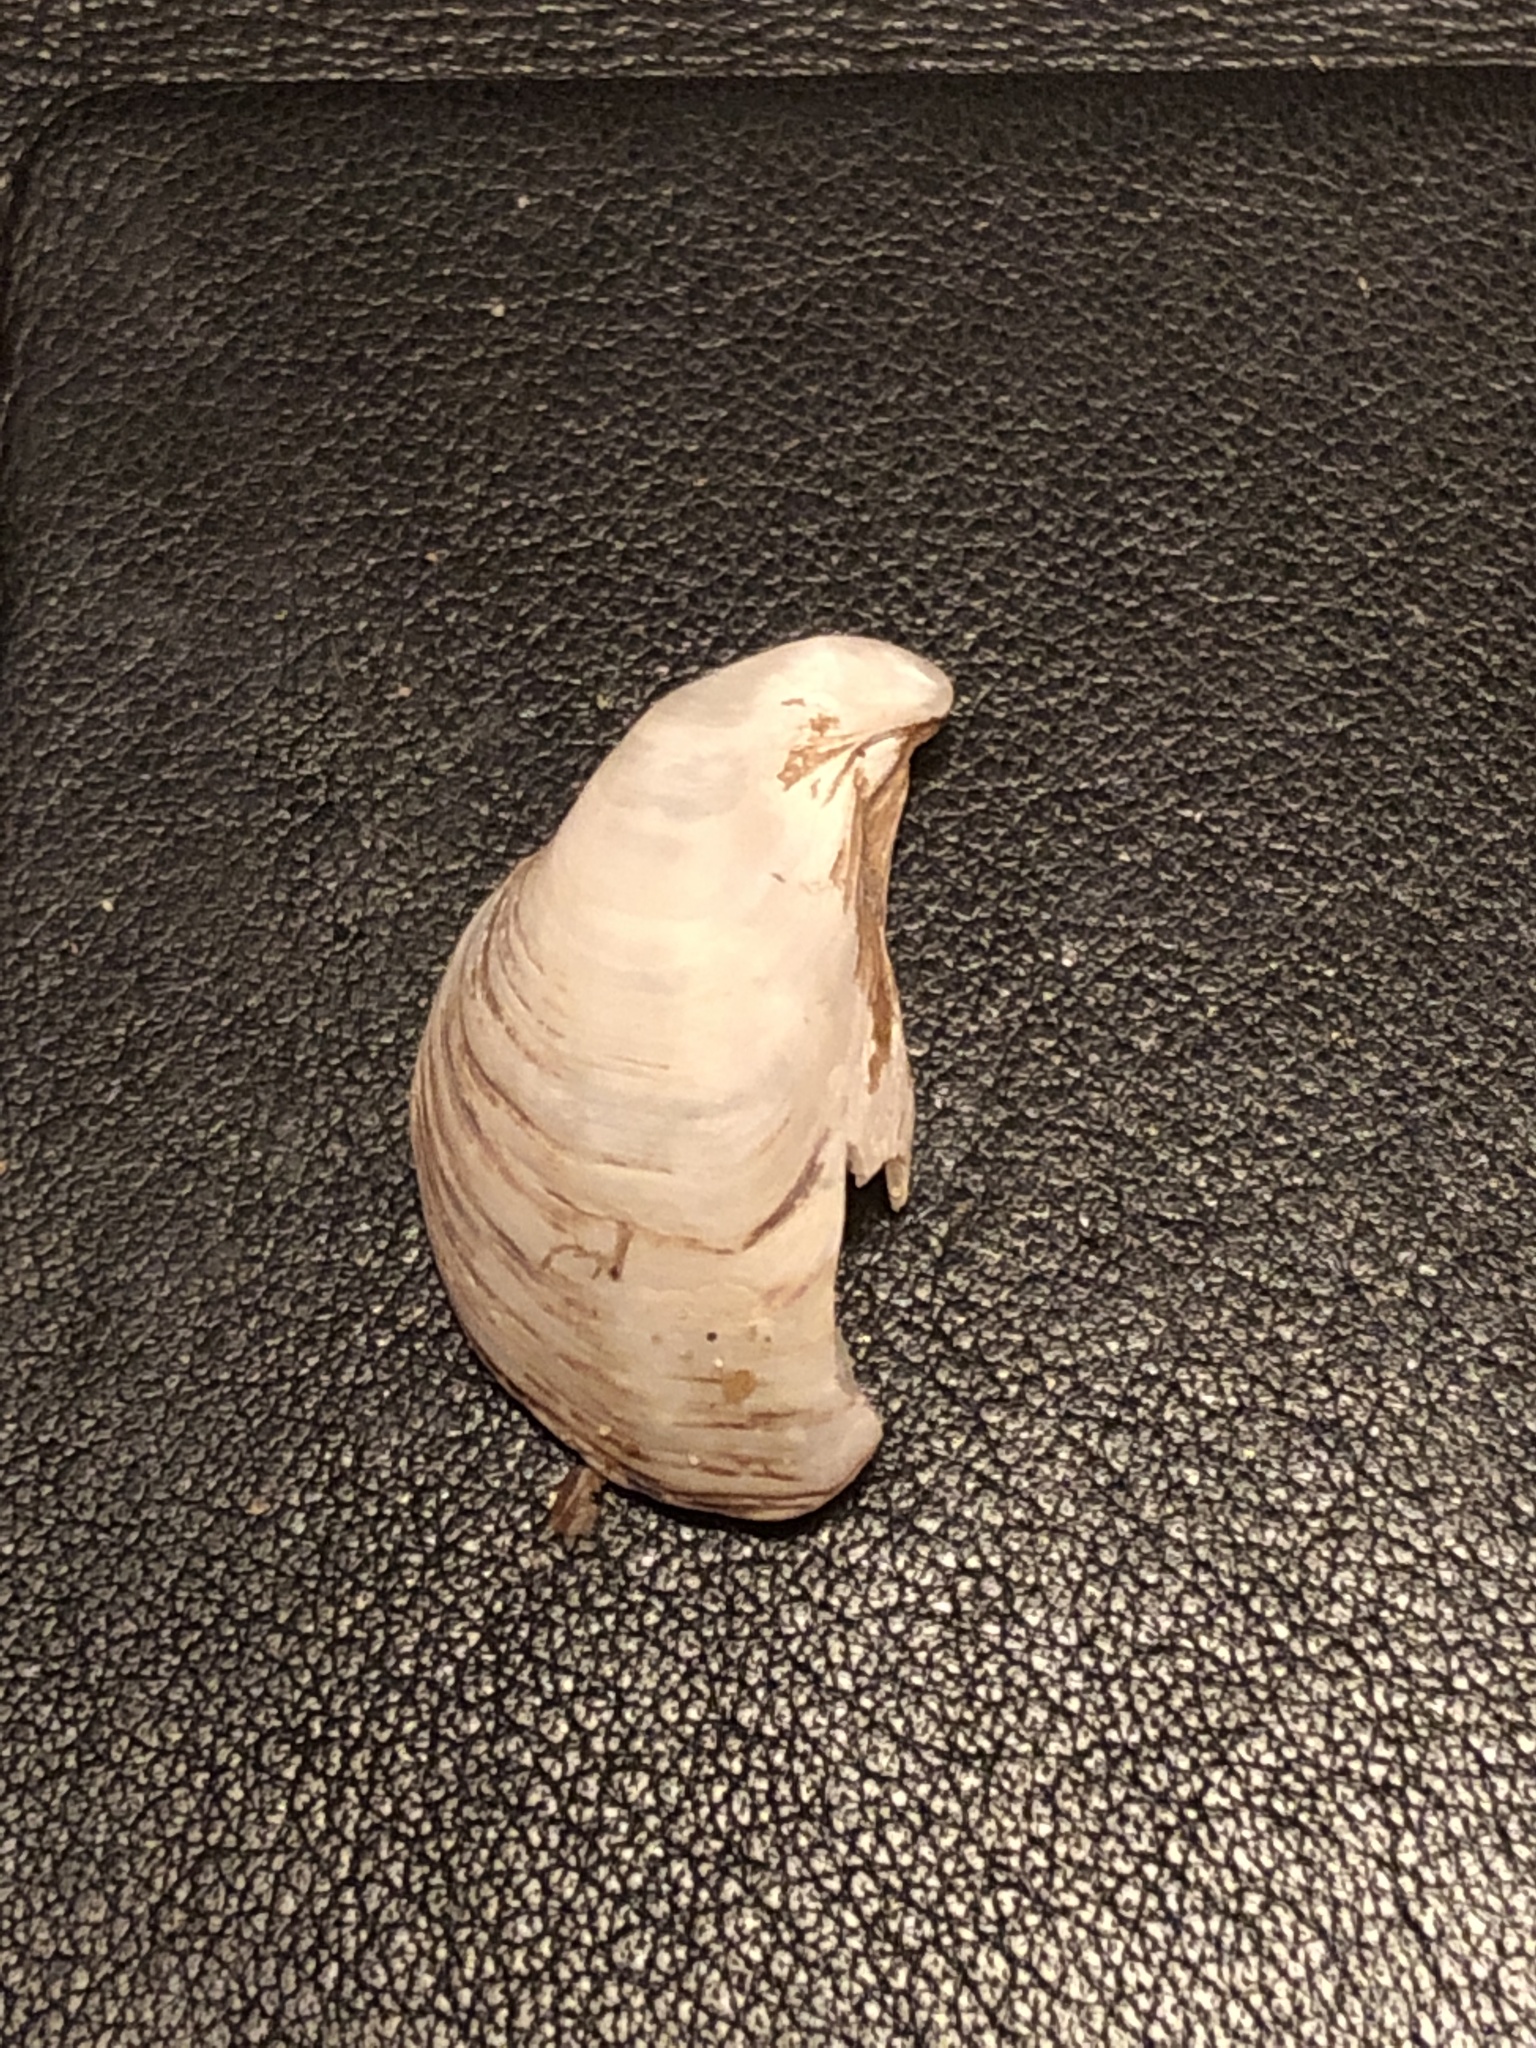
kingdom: Animalia
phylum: Mollusca
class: Bivalvia
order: Myida
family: Dreissenidae
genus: Dreissena
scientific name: Dreissena bugensis
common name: Quagga mussel
